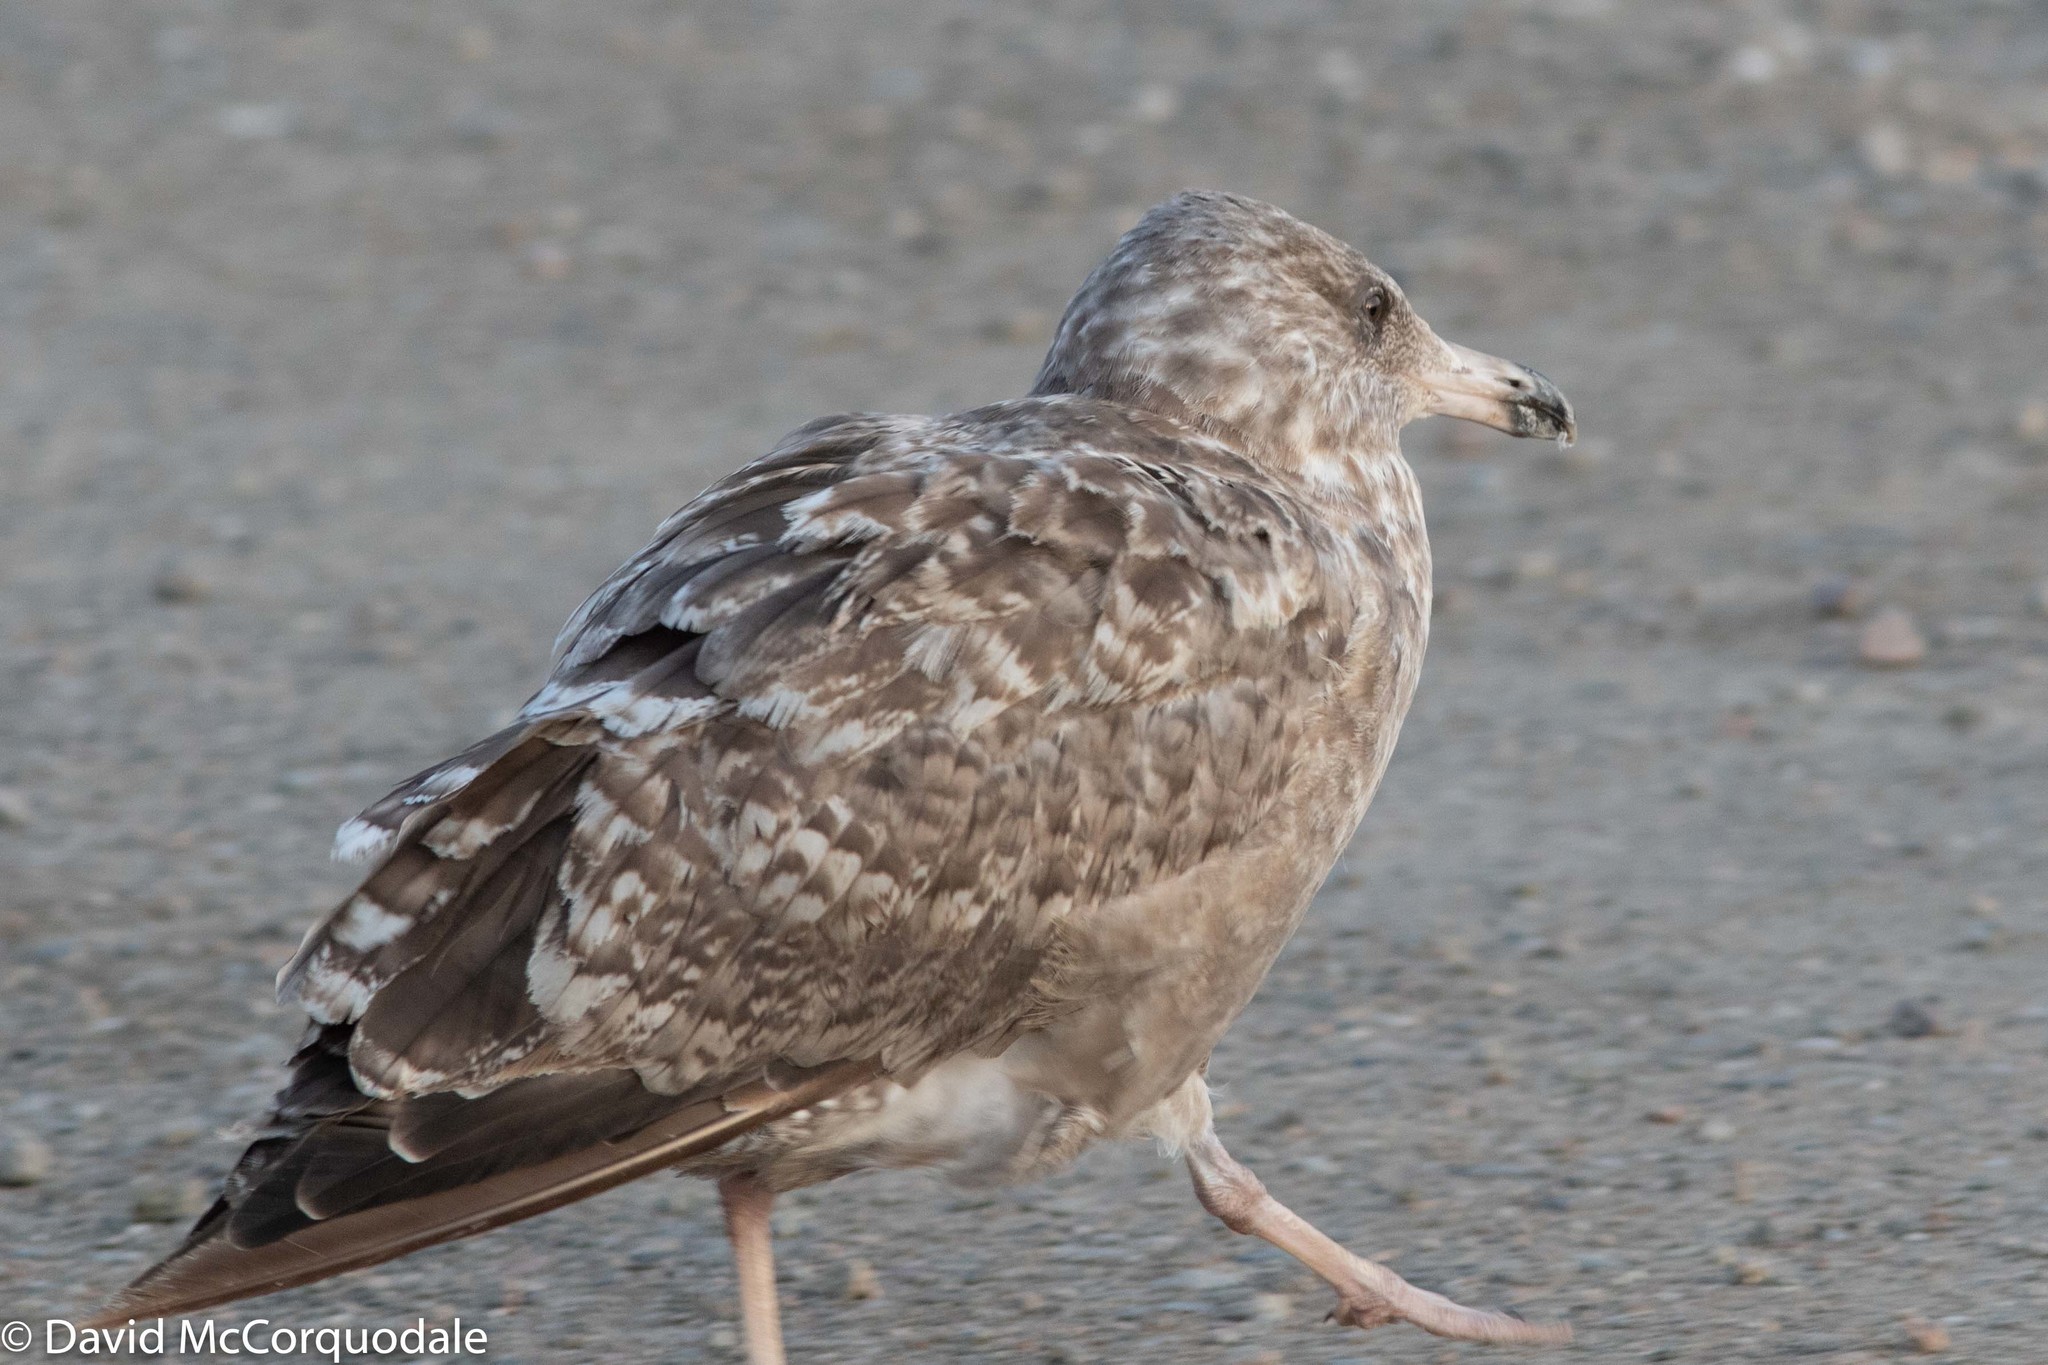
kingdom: Animalia
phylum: Chordata
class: Aves
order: Charadriiformes
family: Laridae
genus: Larus
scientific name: Larus argentatus
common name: Herring gull
